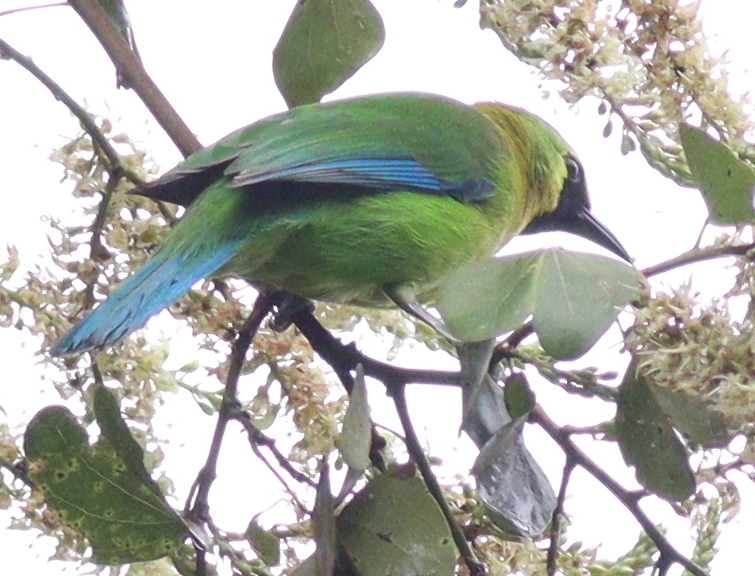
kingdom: Animalia
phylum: Chordata
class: Aves
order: Passeriformes
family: Chloropseidae
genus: Chloropsis
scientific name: Chloropsis moluccensis
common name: Blue-winged leafbird
